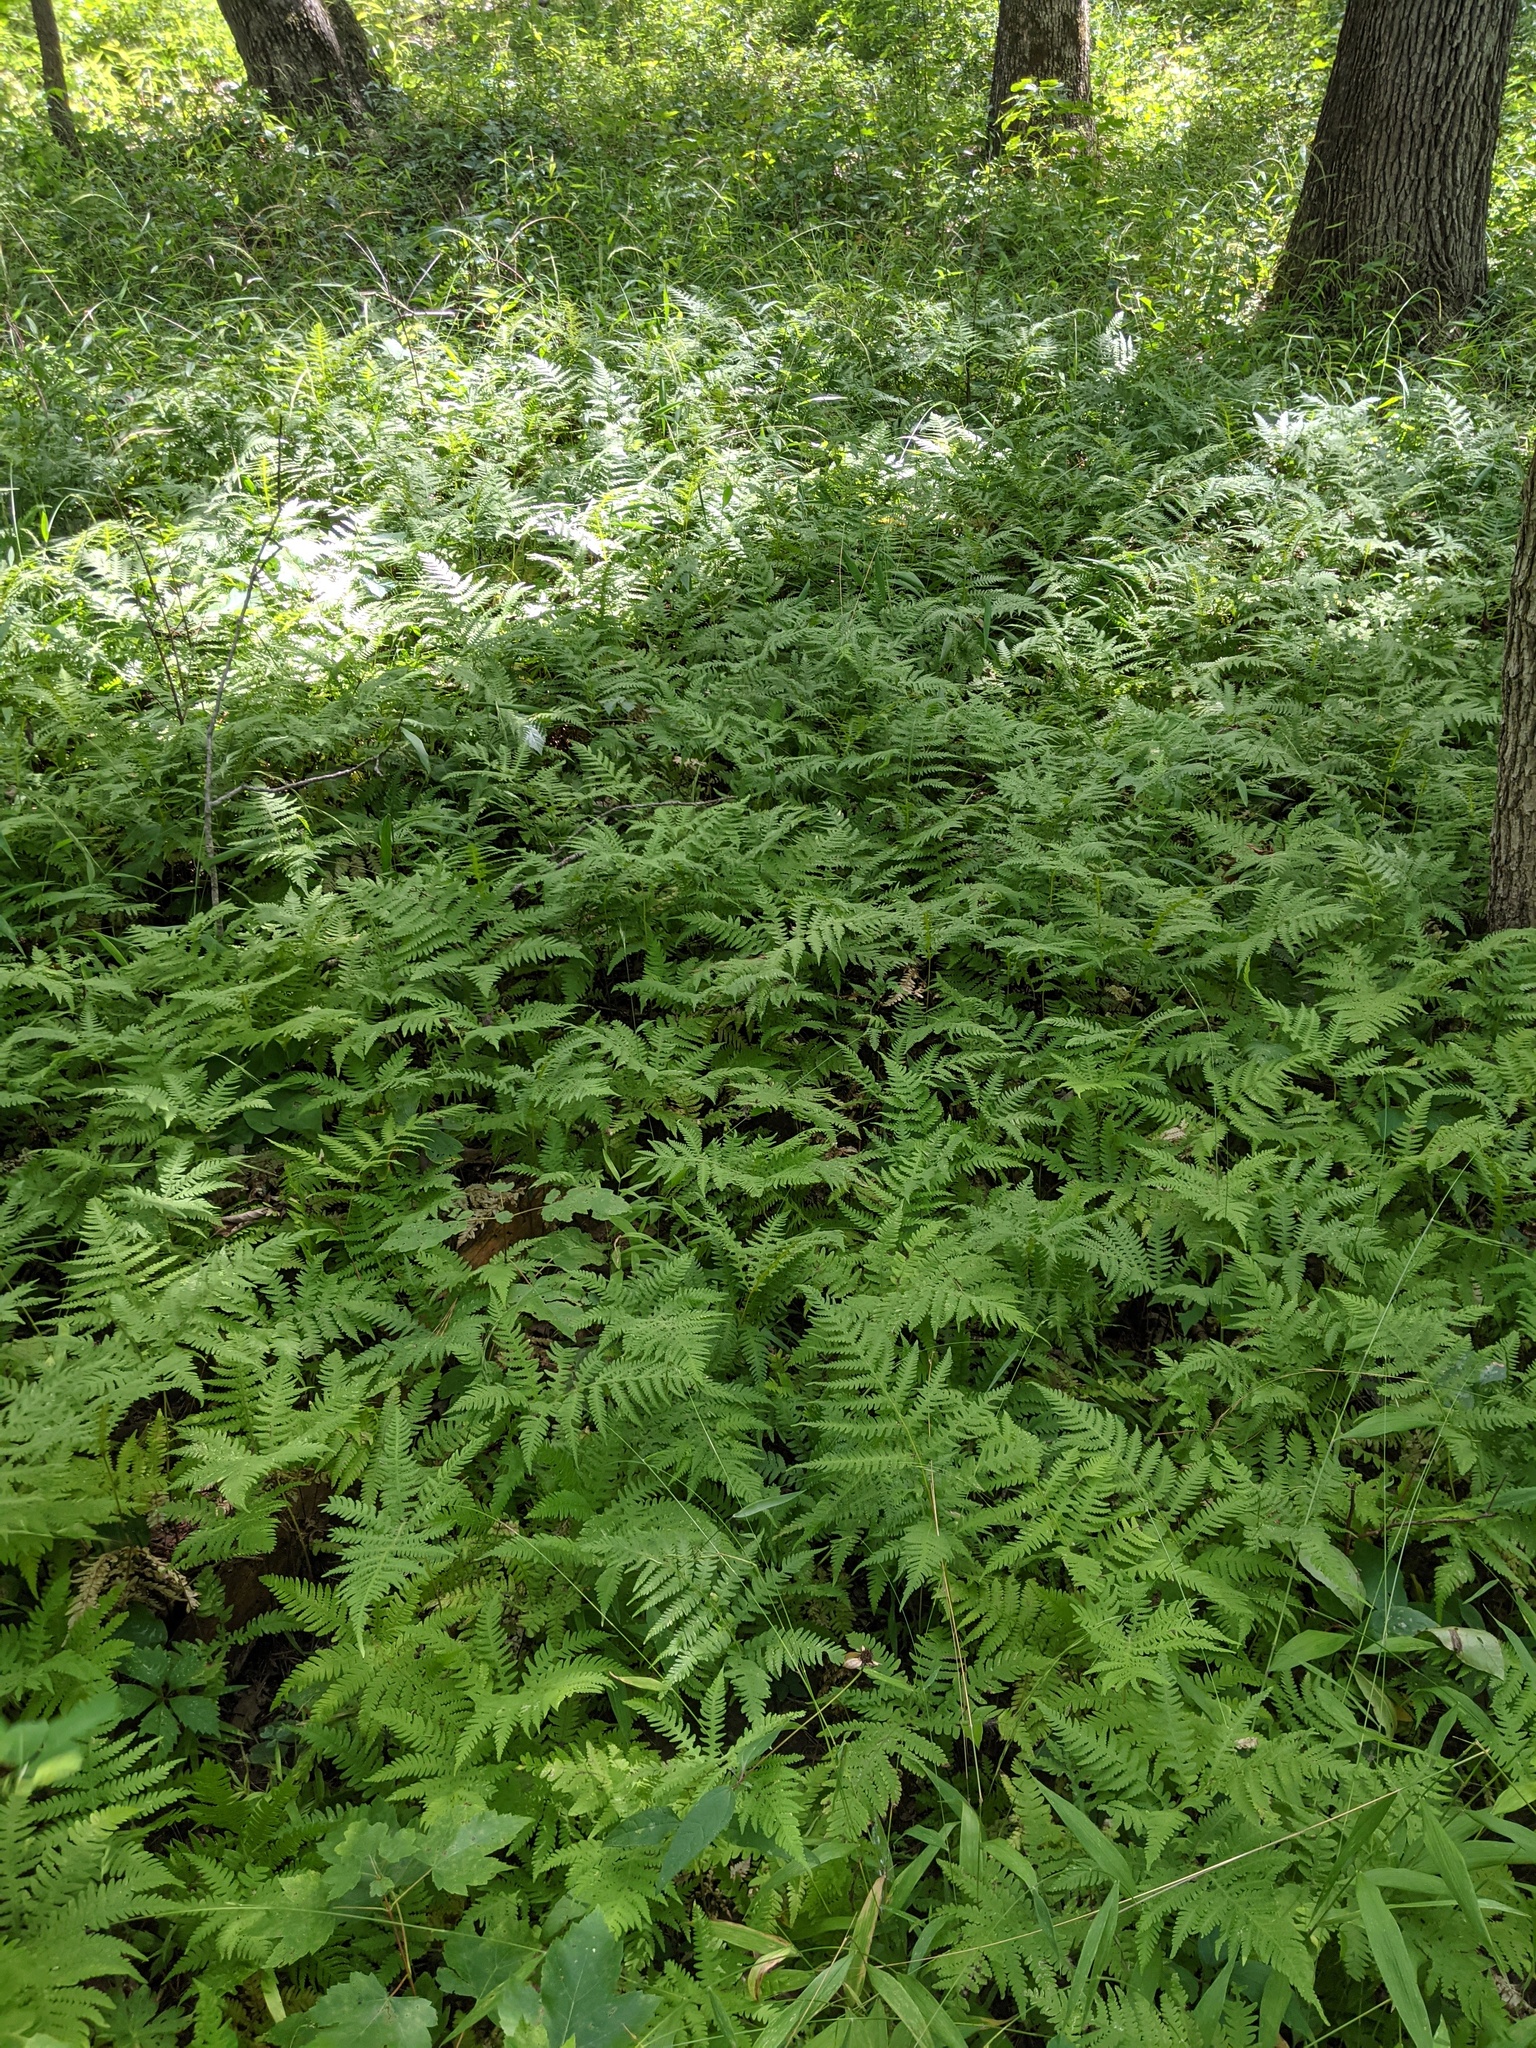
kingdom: Plantae
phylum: Tracheophyta
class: Polypodiopsida
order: Polypodiales
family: Thelypteridaceae
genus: Phegopteris
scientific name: Phegopteris hexagonoptera
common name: Broad beech fern
